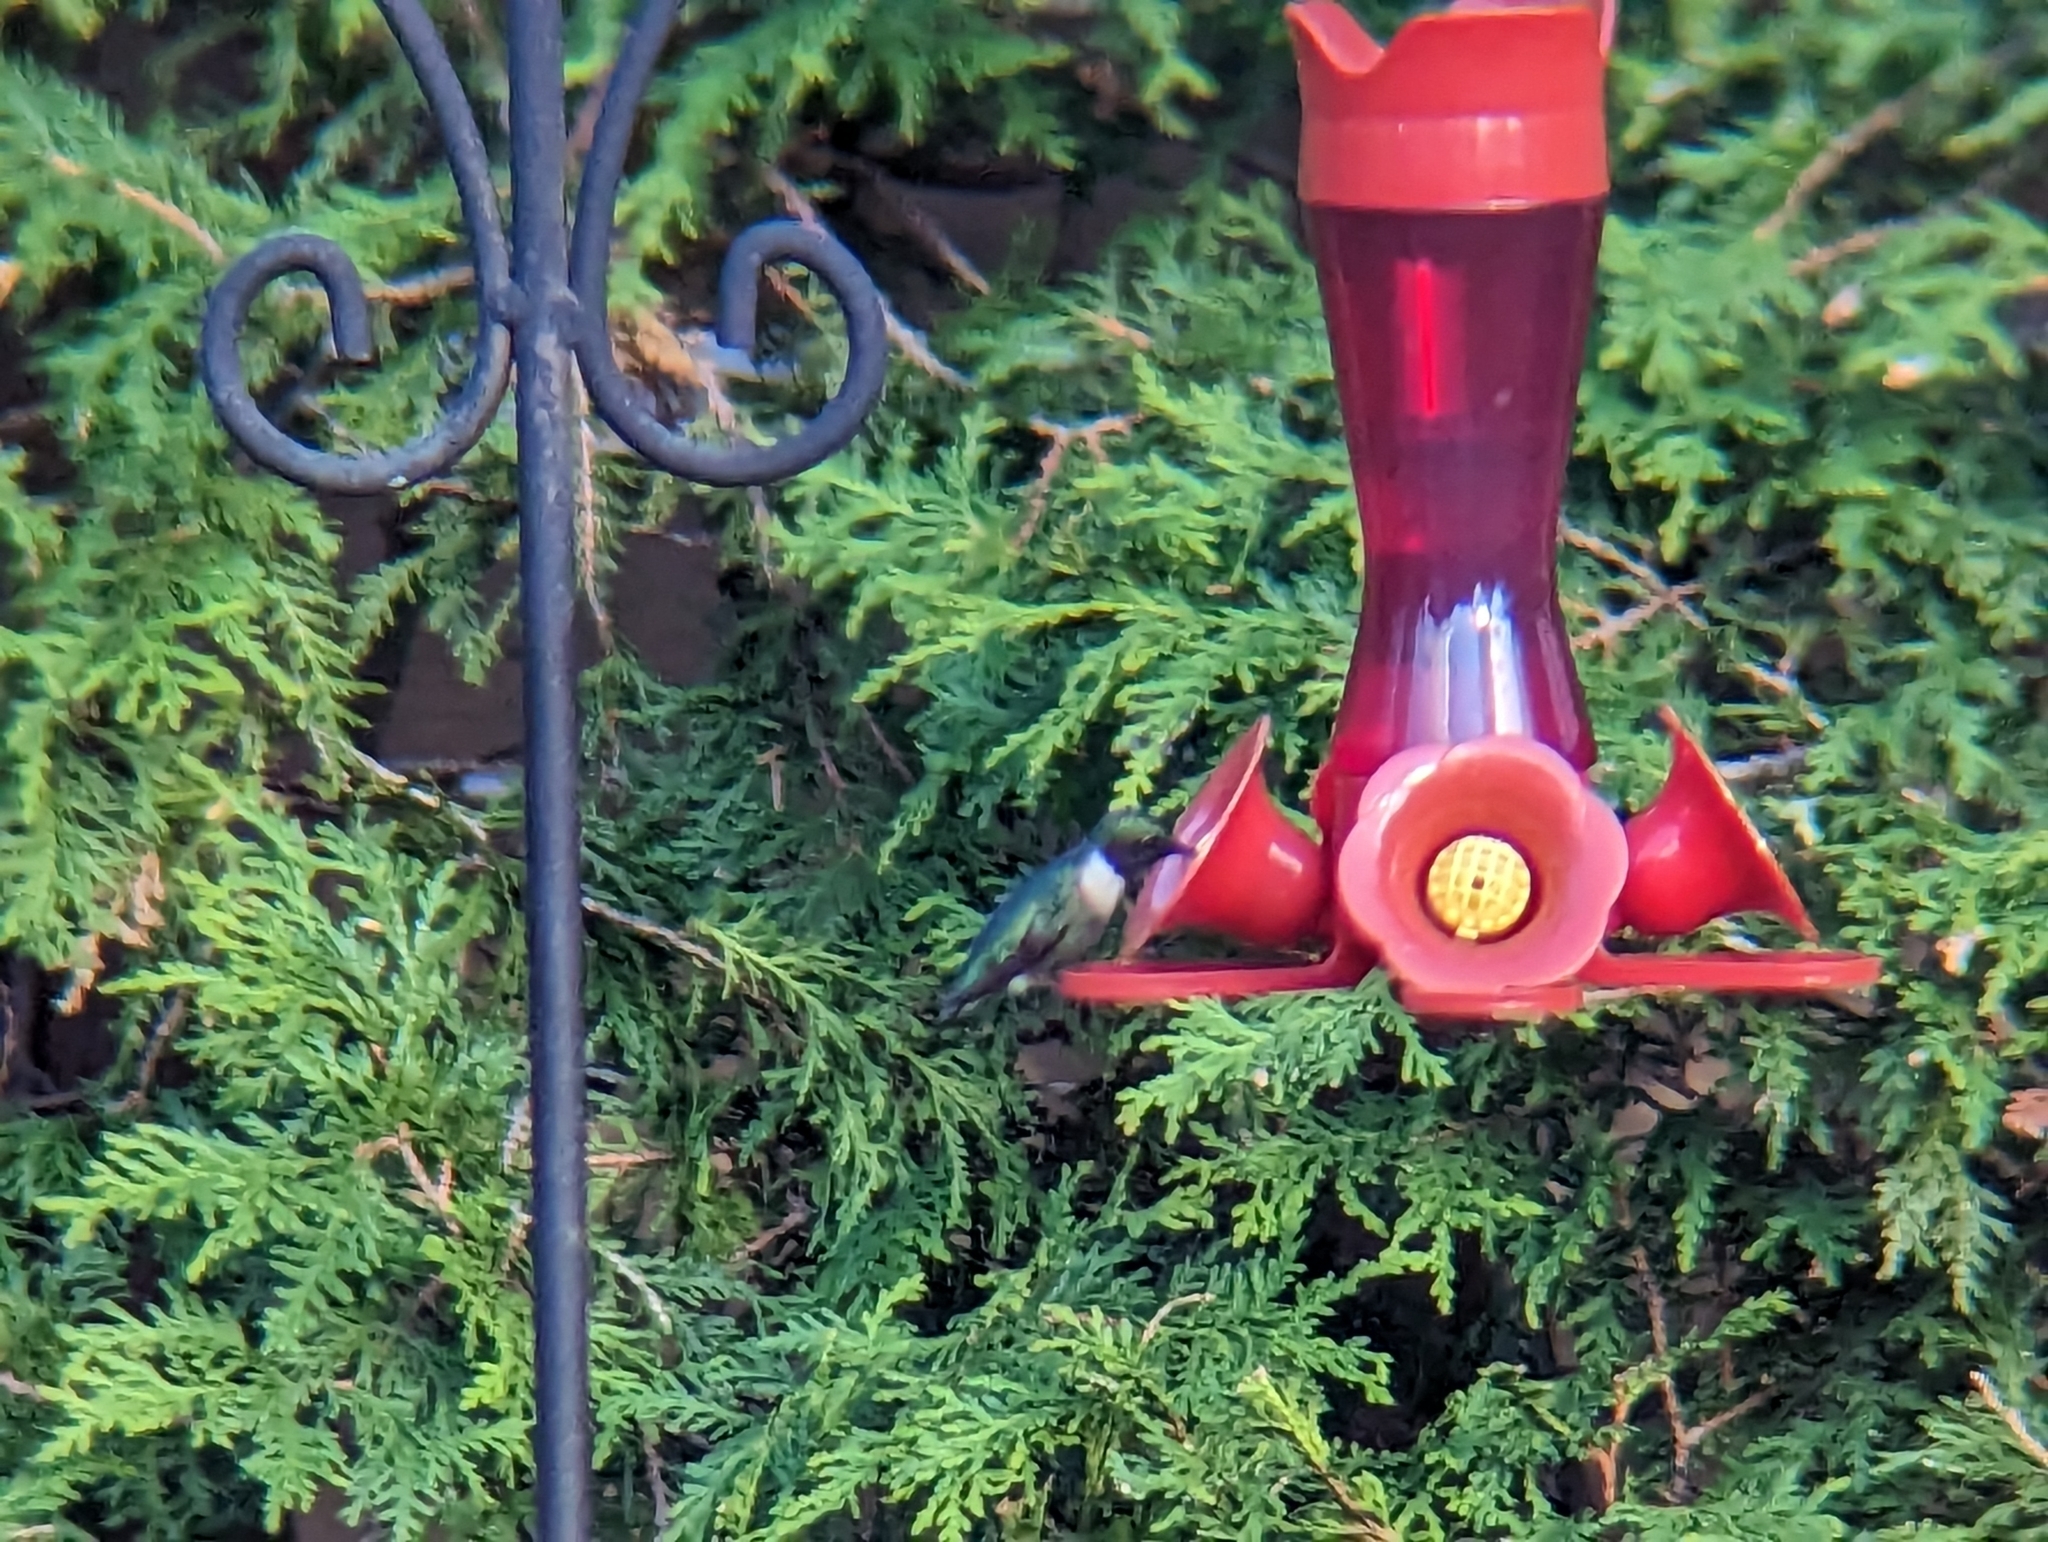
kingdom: Animalia
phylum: Chordata
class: Aves
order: Apodiformes
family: Trochilidae
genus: Archilochus
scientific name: Archilochus colubris
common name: Ruby-throated hummingbird
